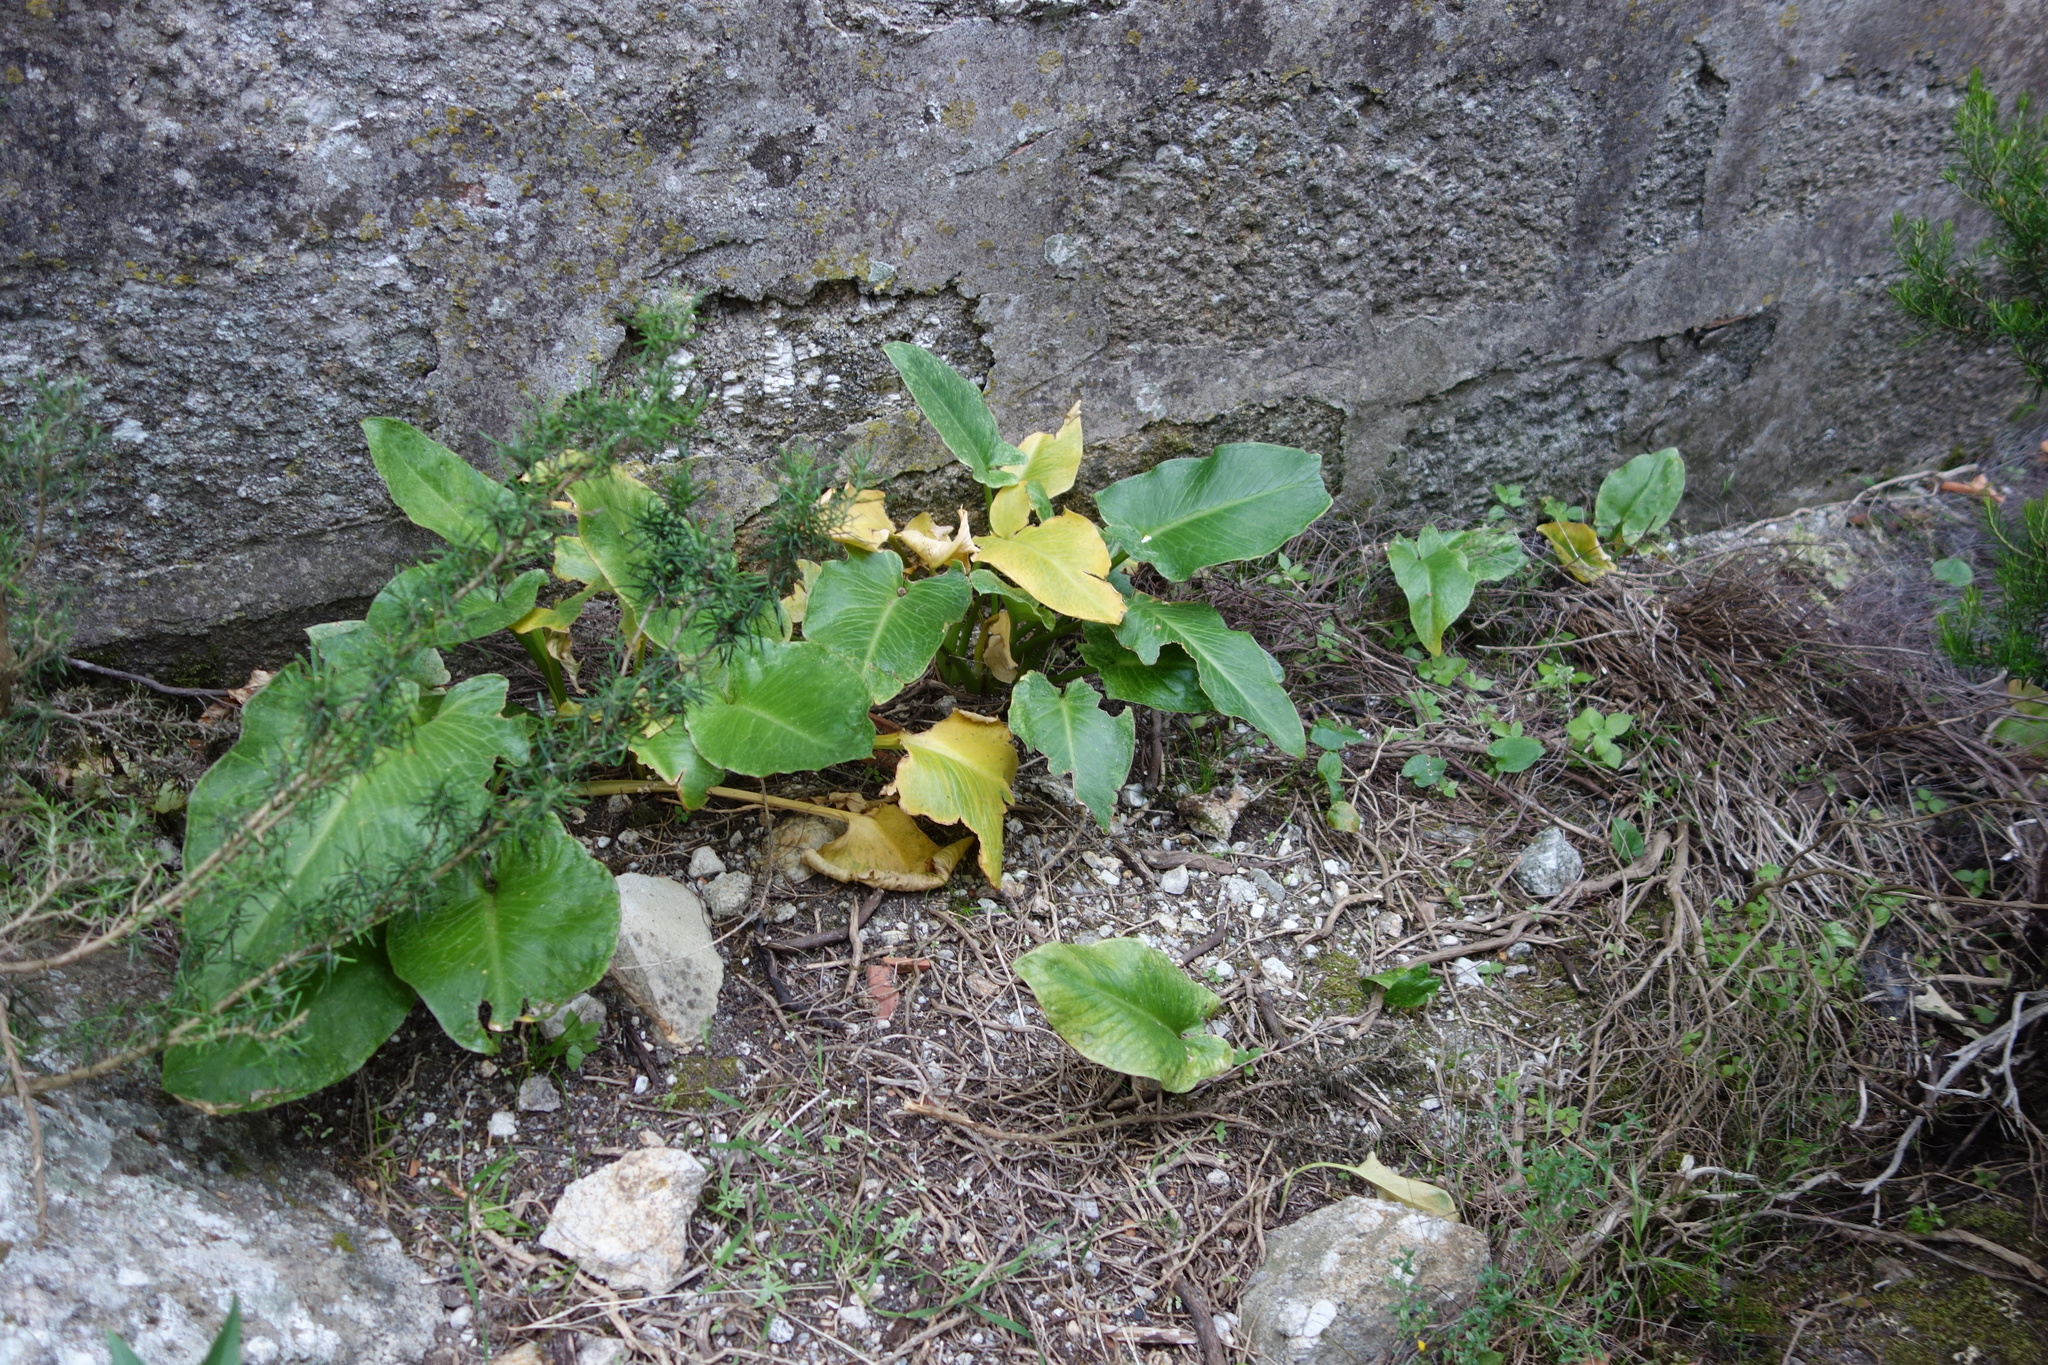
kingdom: Plantae
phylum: Tracheophyta
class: Liliopsida
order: Alismatales
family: Araceae
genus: Arum
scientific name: Arum pictum
